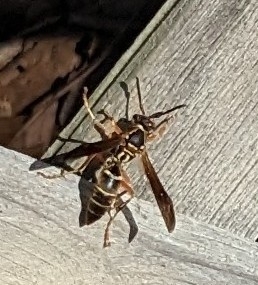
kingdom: Animalia
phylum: Arthropoda
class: Insecta
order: Hymenoptera
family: Eumenidae
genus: Polistes
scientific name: Polistes fuscatus
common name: Dark paper wasp
